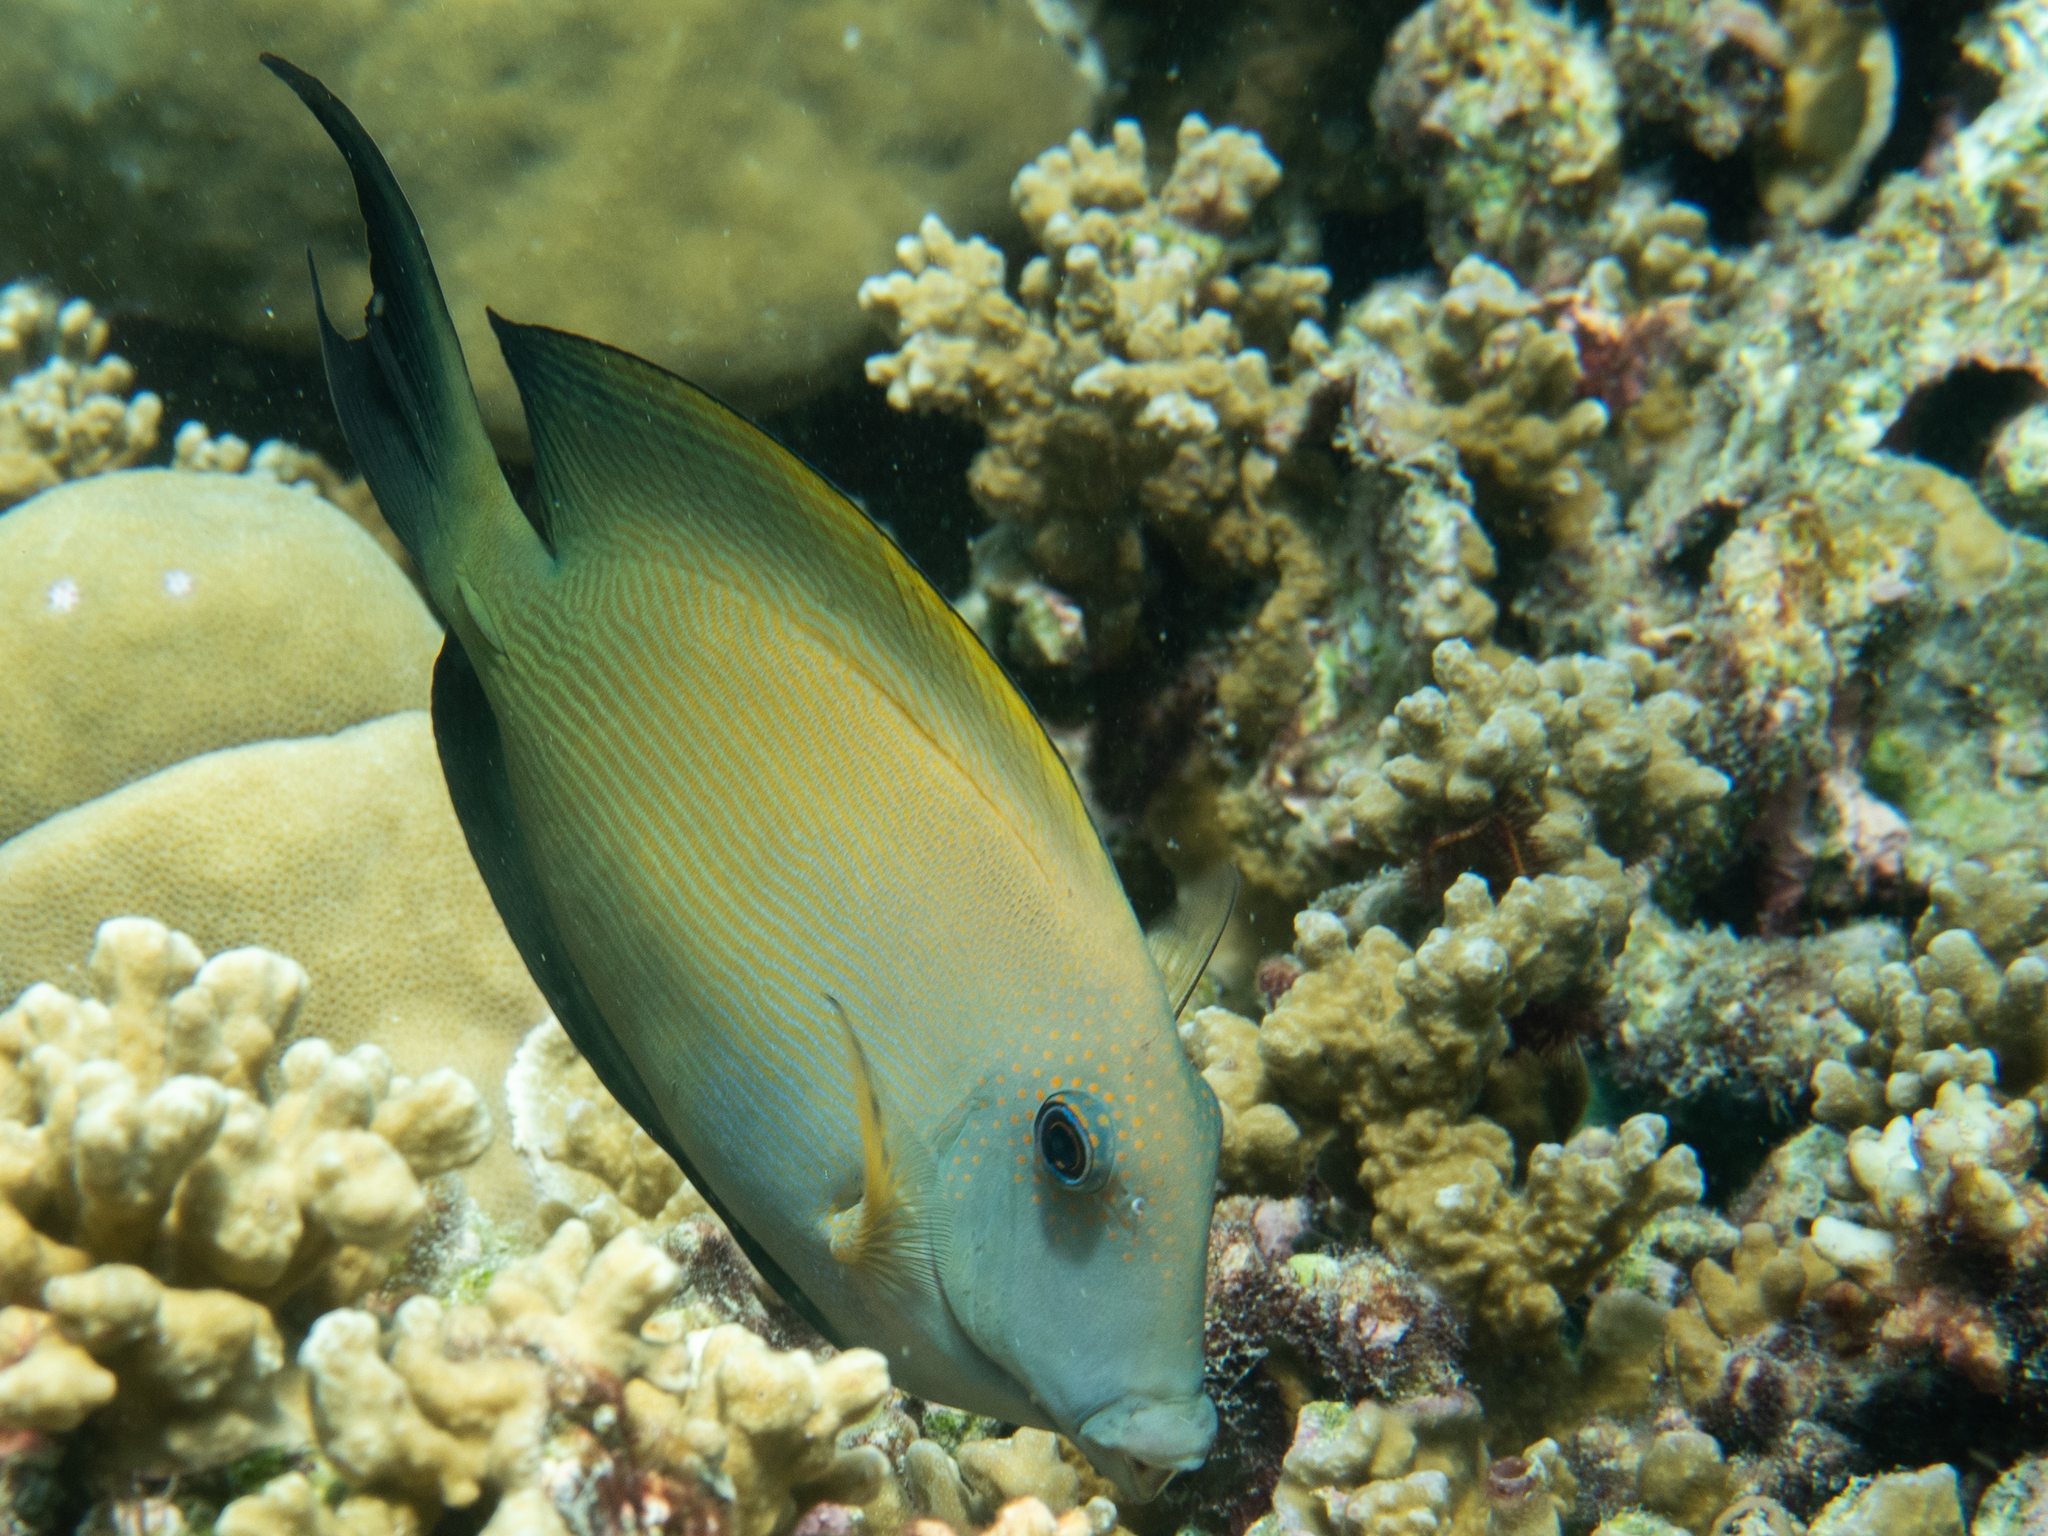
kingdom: Animalia
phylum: Chordata
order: Perciformes
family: Acanthuridae
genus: Ctenochaetus
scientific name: Ctenochaetus striatus
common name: Bristle-toothed surgeonfish
